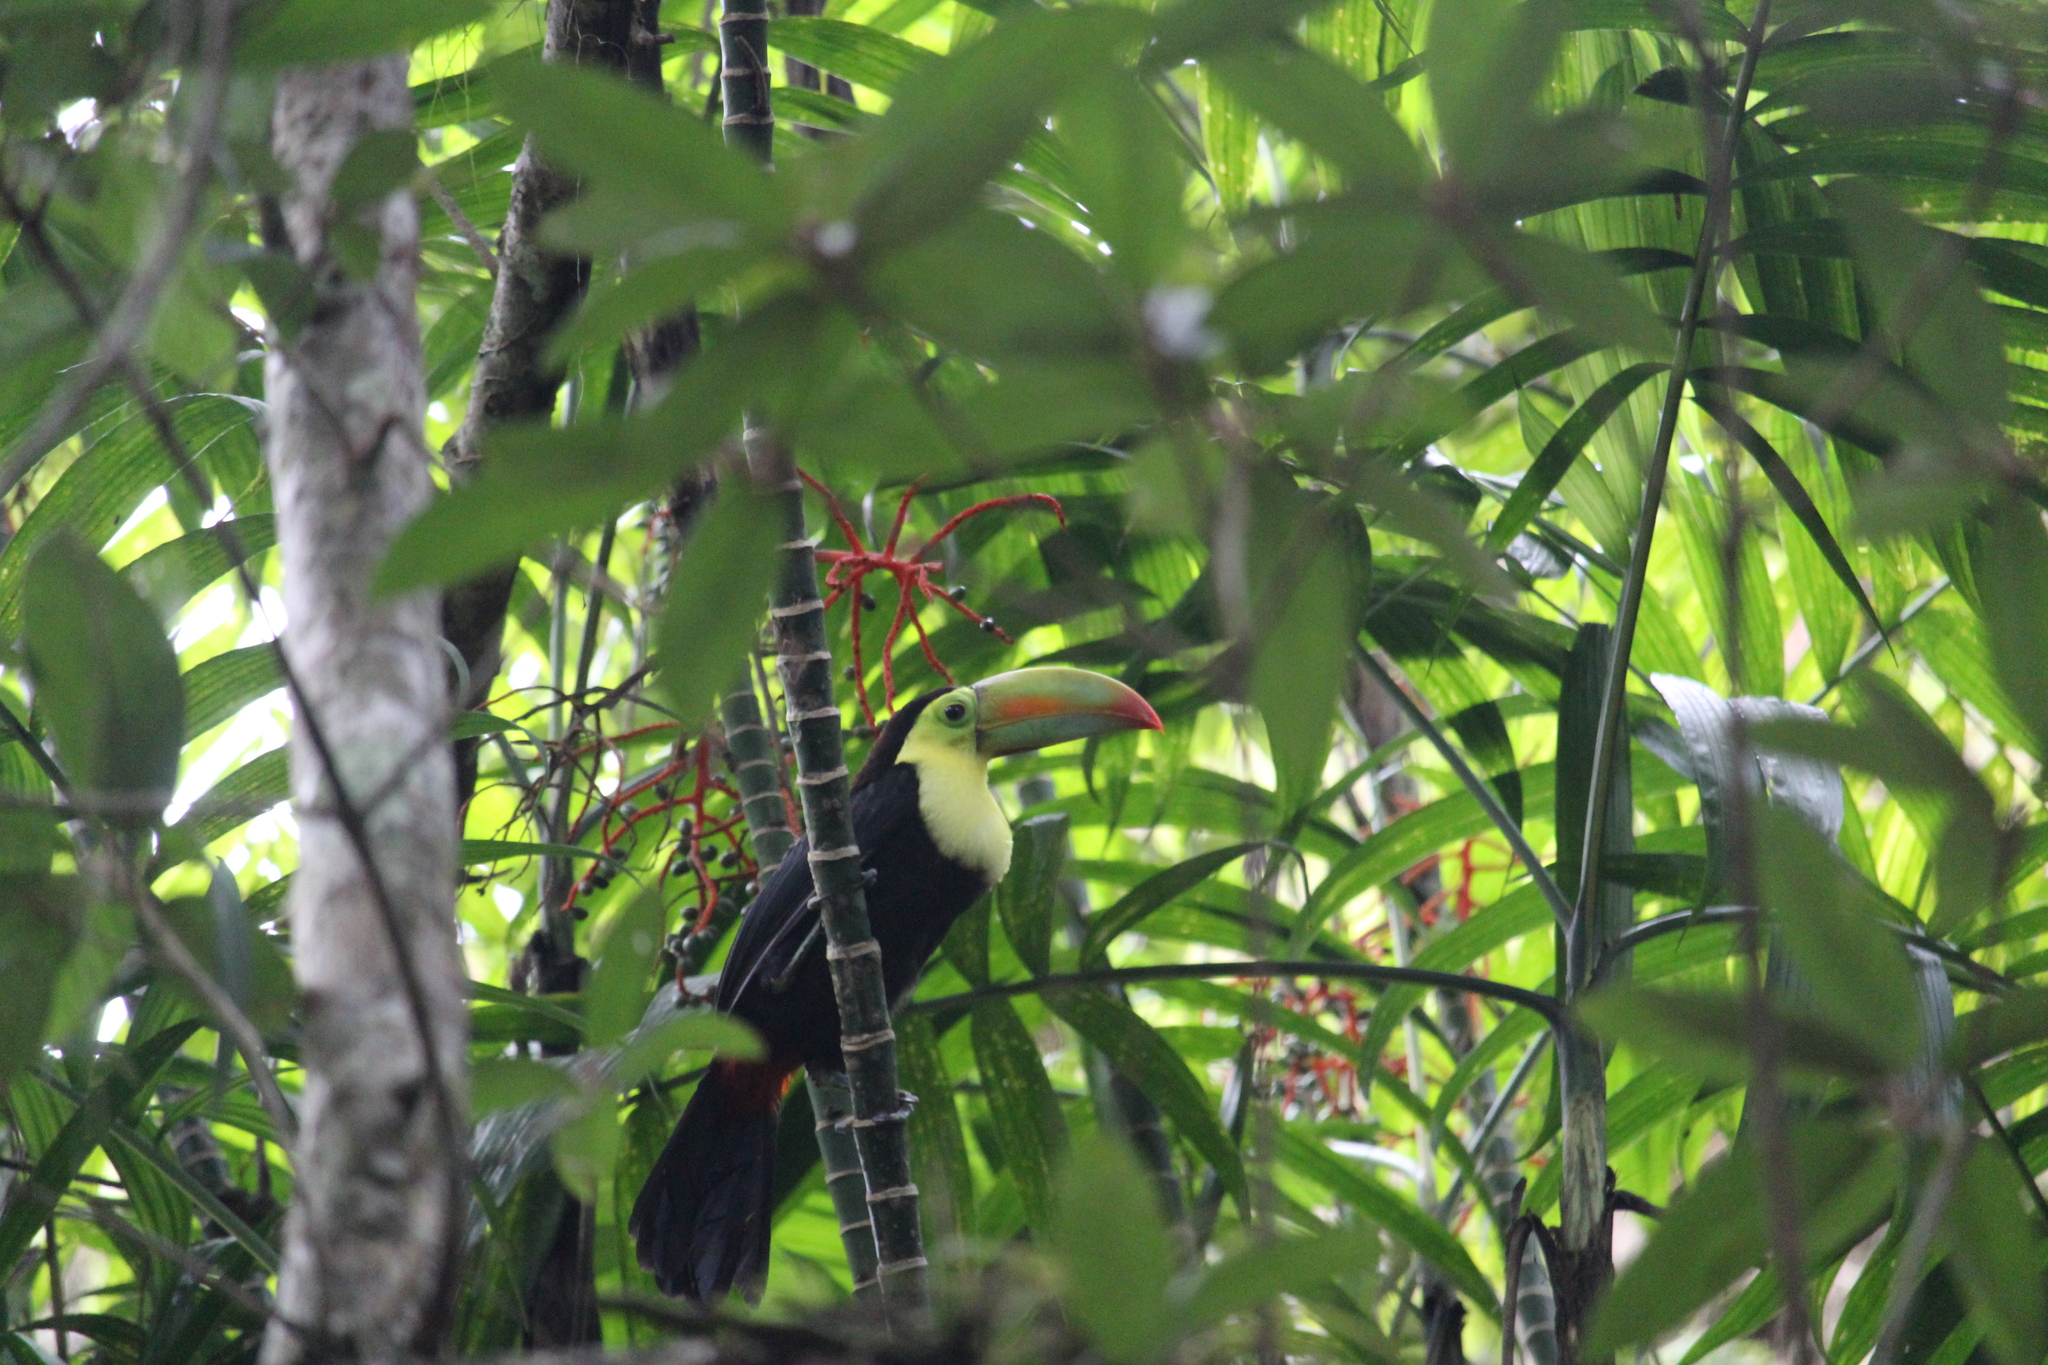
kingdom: Animalia
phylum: Chordata
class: Aves
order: Piciformes
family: Ramphastidae
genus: Ramphastos
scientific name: Ramphastos sulfuratus
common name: Keel-billed toucan
